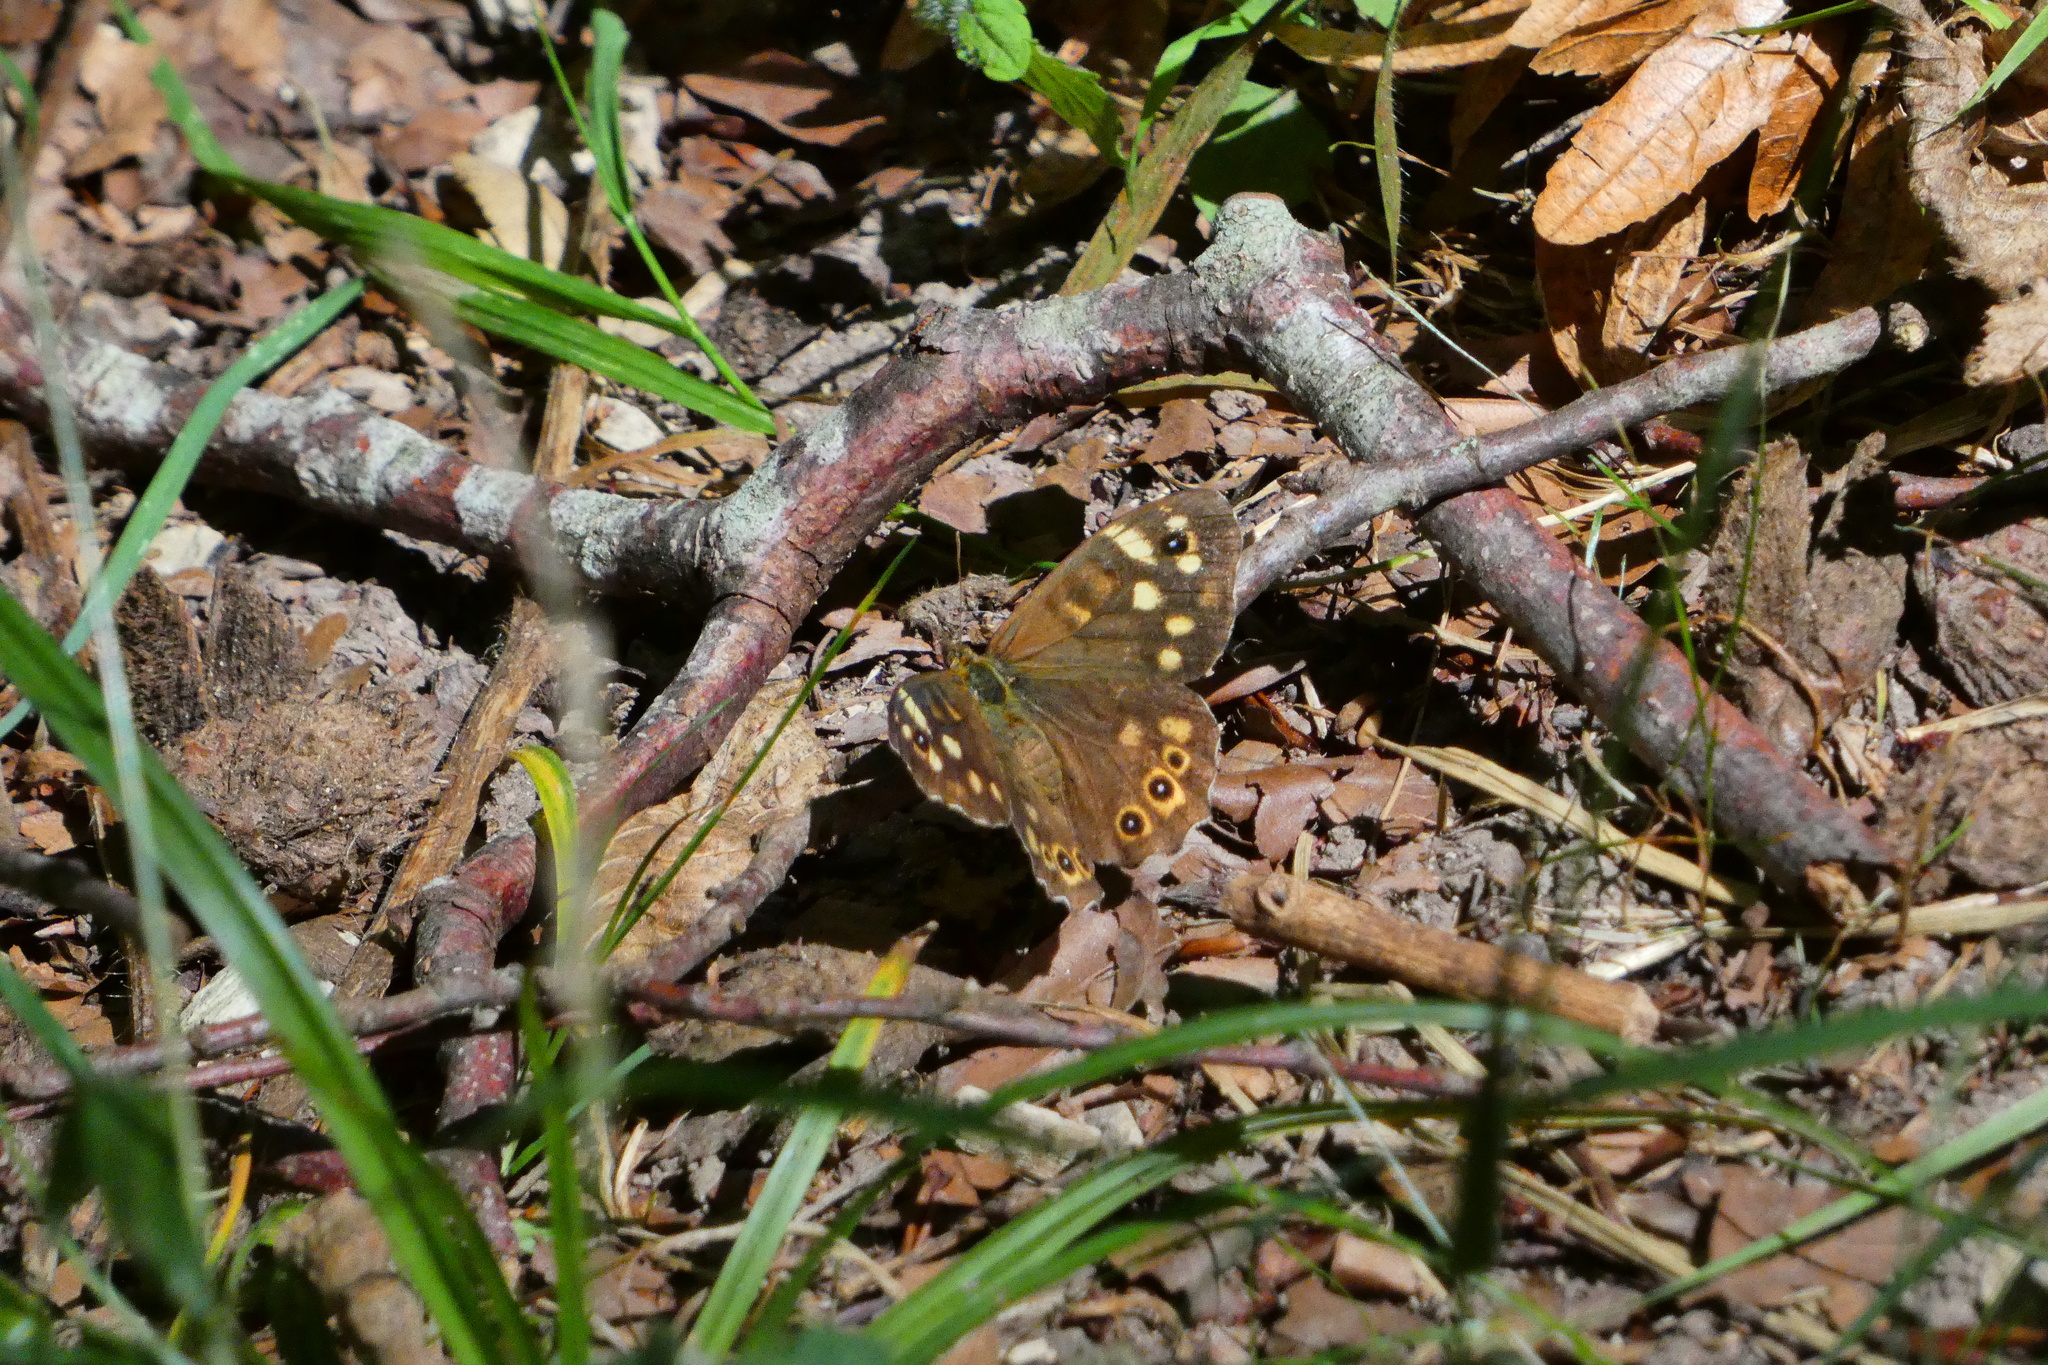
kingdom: Animalia
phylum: Arthropoda
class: Insecta
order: Lepidoptera
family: Nymphalidae
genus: Pararge
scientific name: Pararge aegeria
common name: Speckled wood
